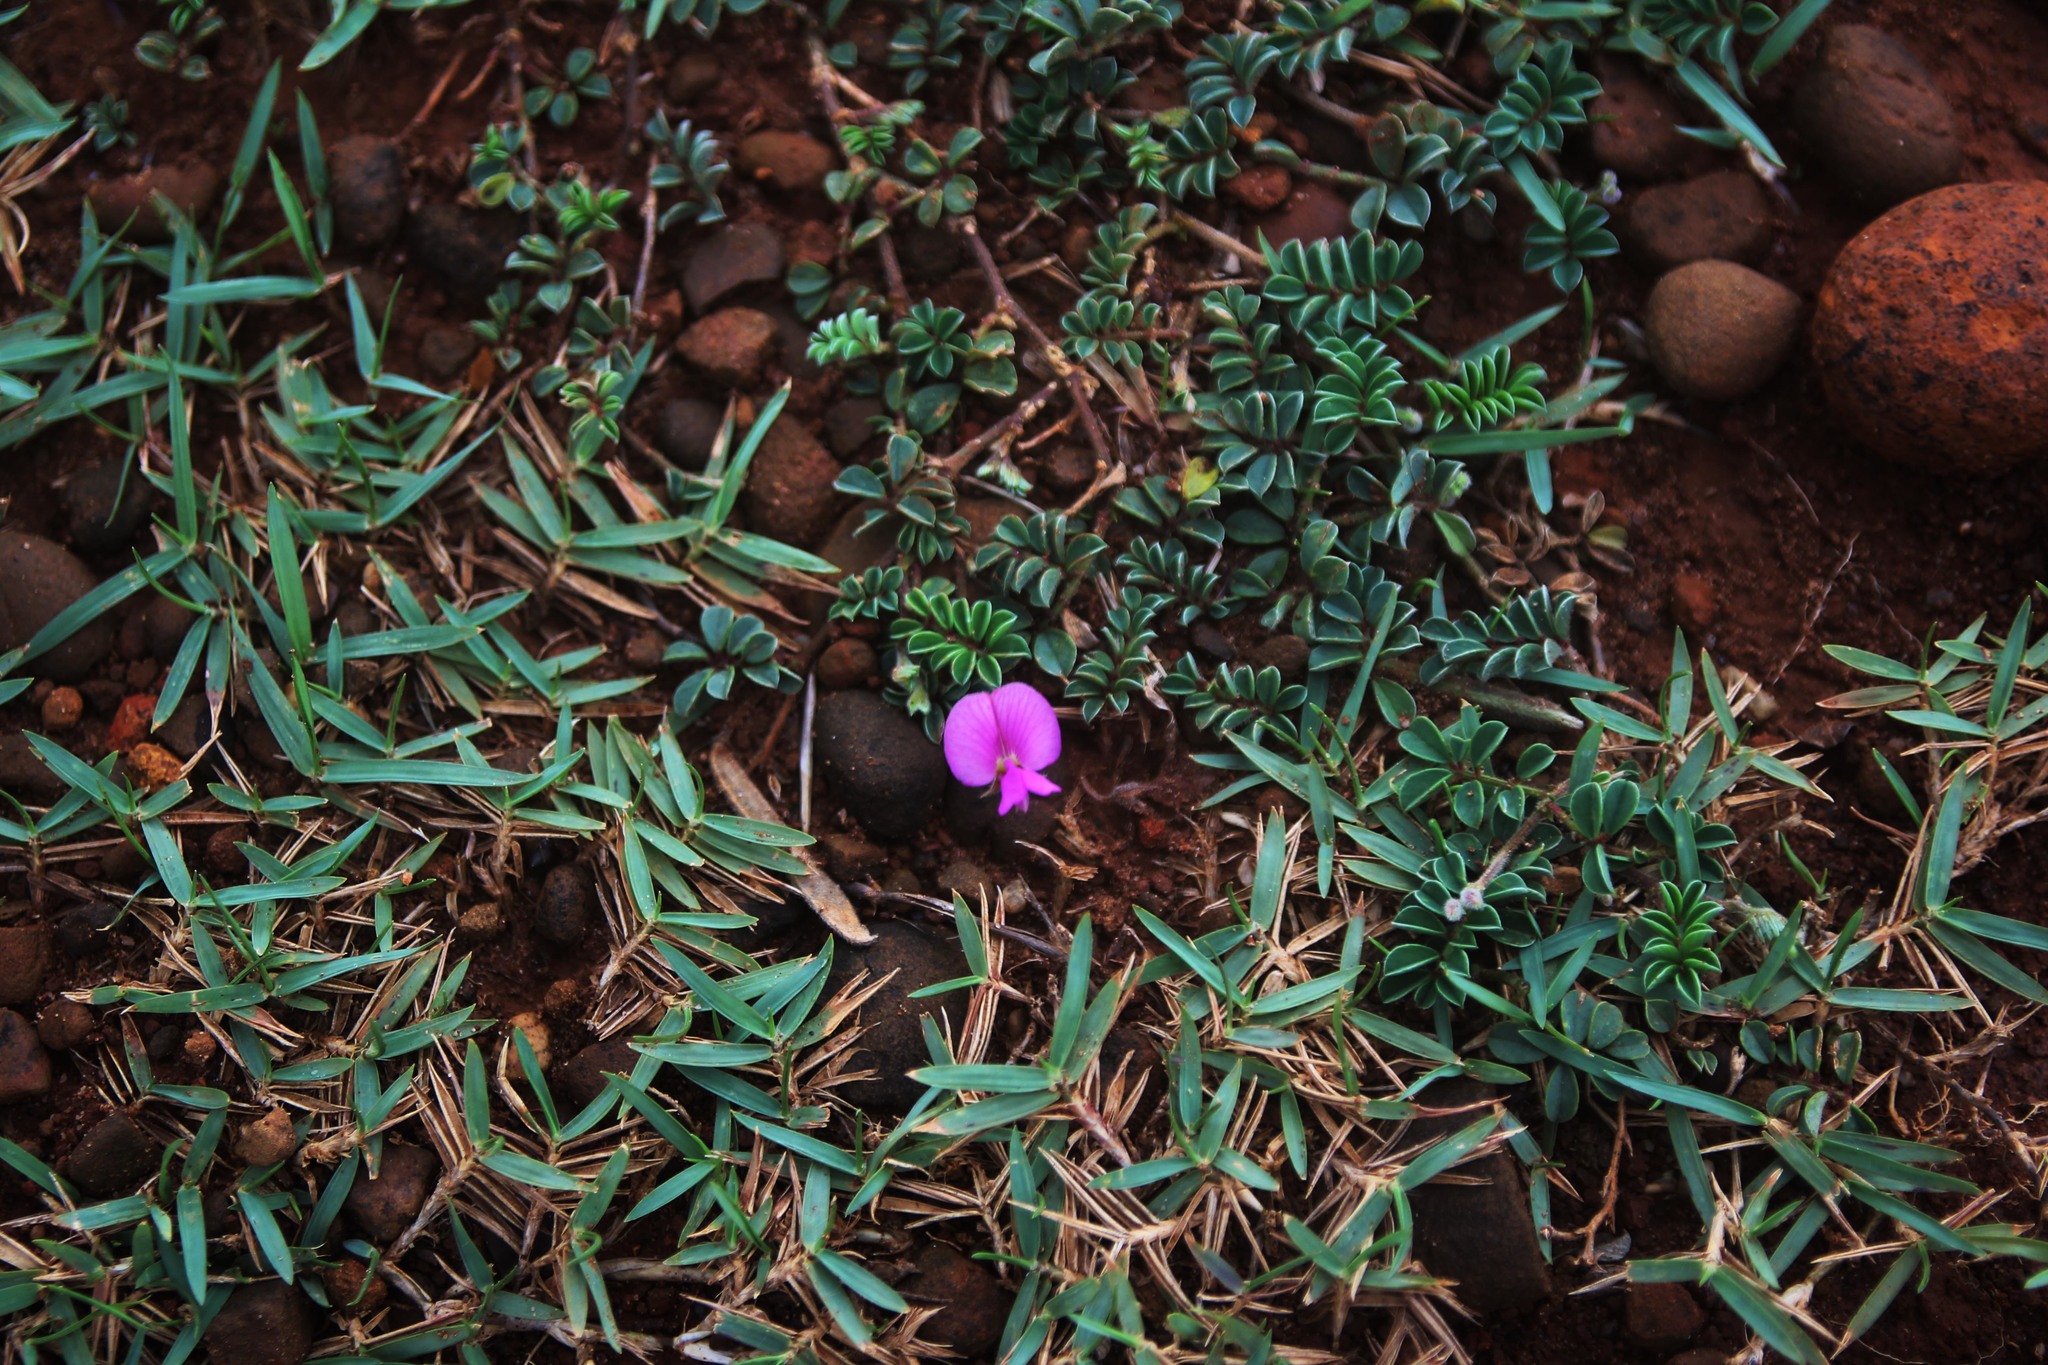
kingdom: Plantae
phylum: Tracheophyta
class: Magnoliopsida
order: Fabales
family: Fabaceae
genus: Tephrosia
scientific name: Tephrosia obovata
